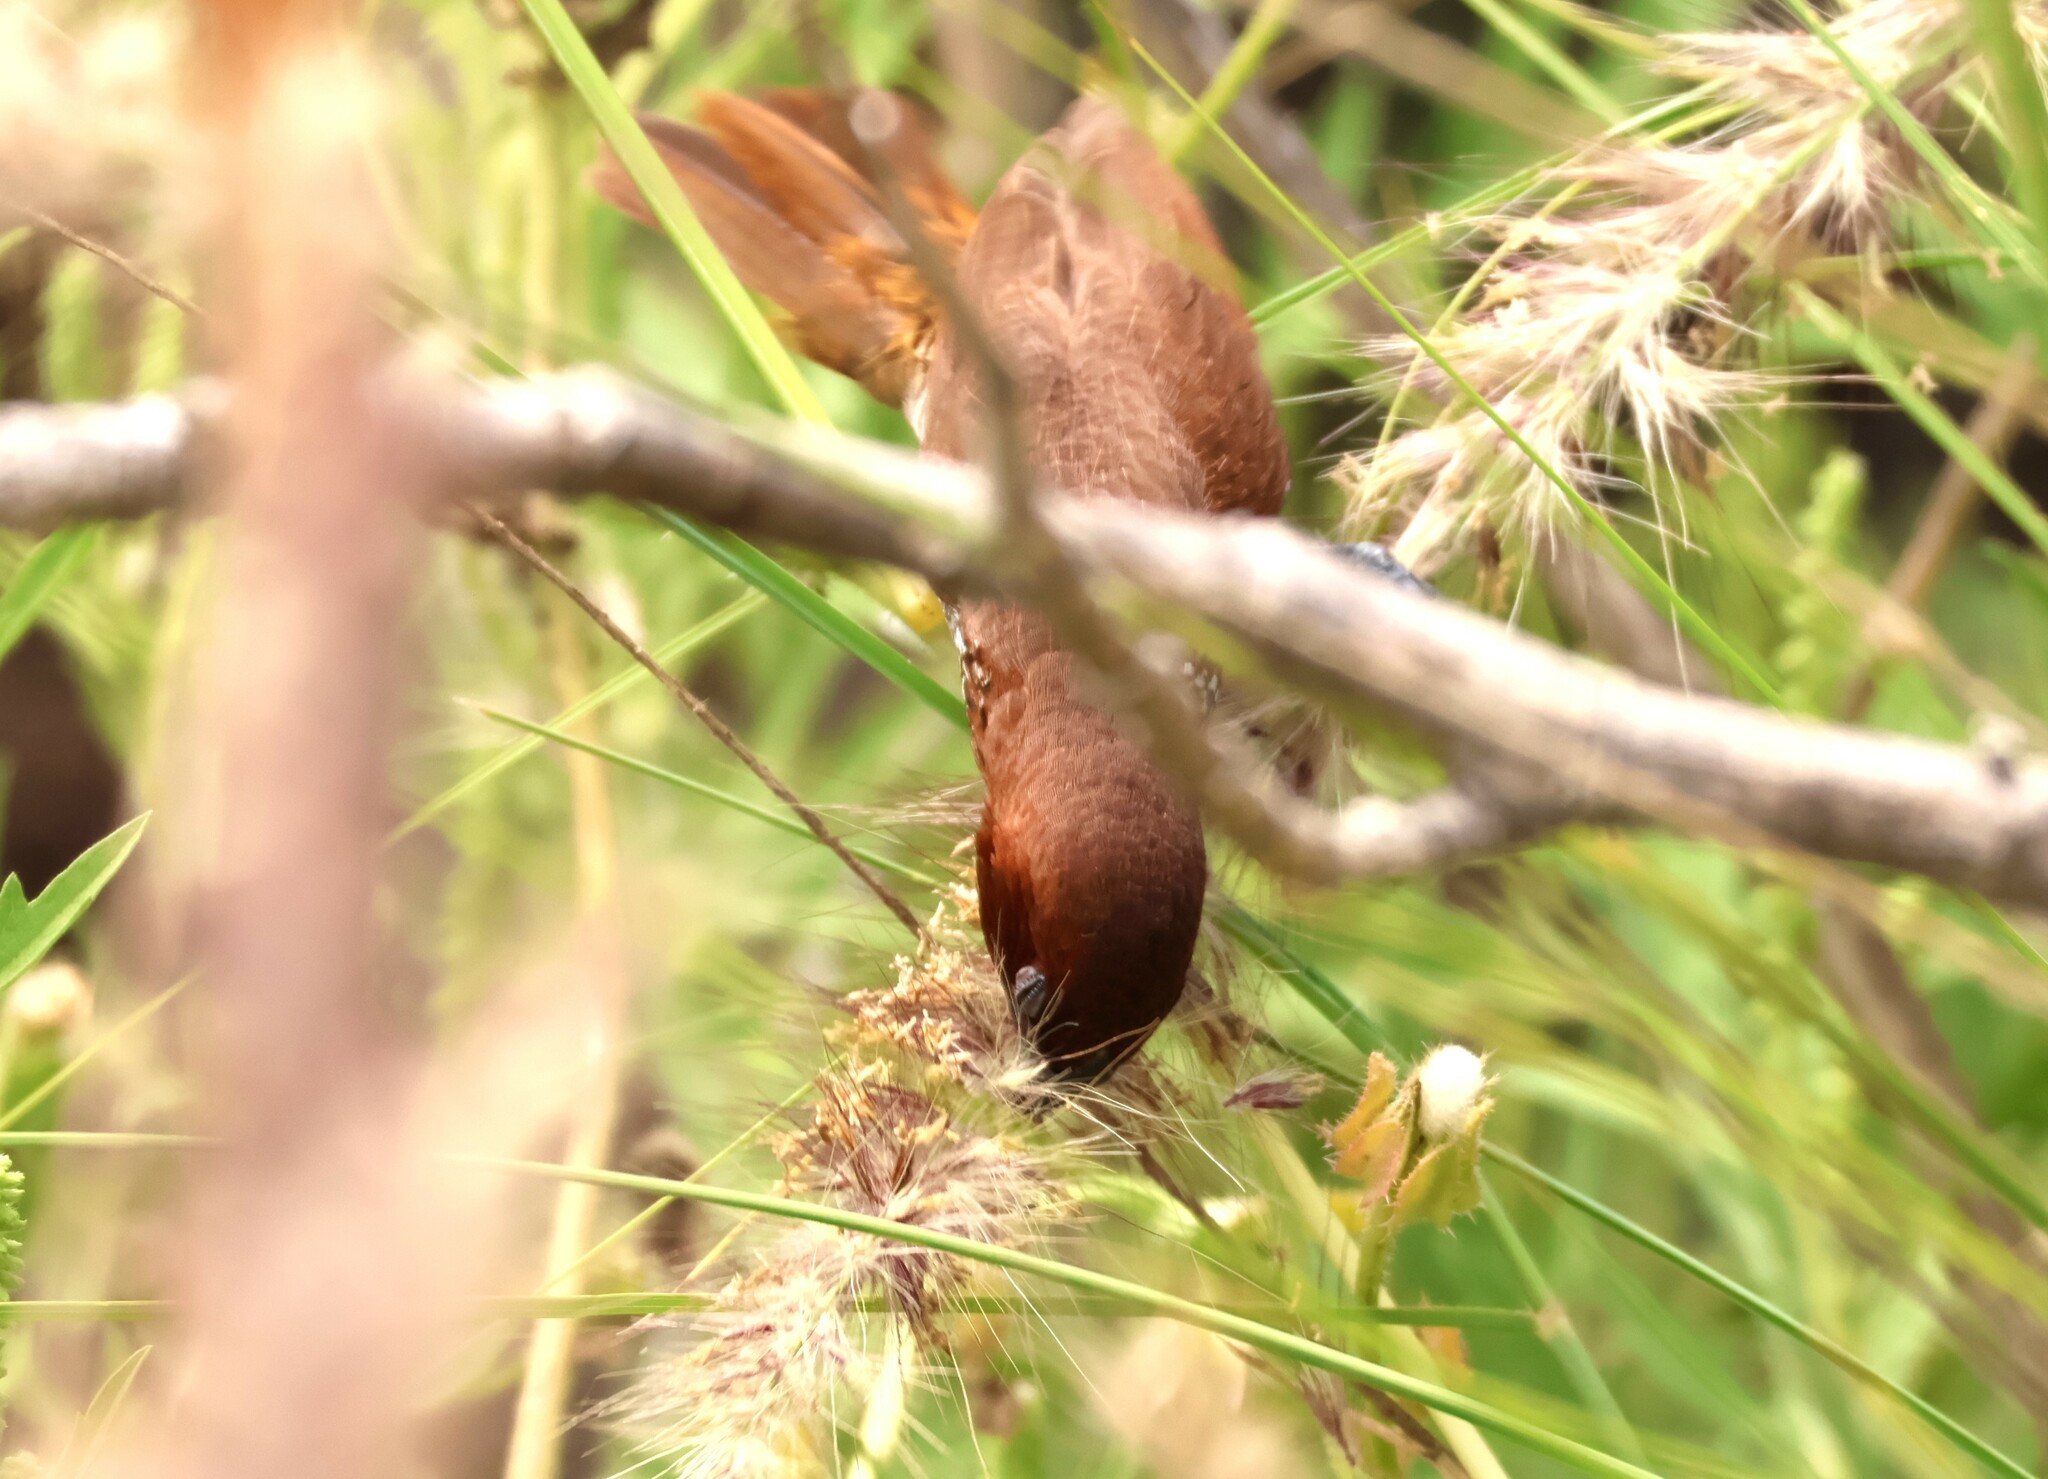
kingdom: Animalia
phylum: Chordata
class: Aves
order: Passeriformes
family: Estrildidae
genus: Lonchura
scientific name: Lonchura punctulata
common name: Scaly-breasted munia
